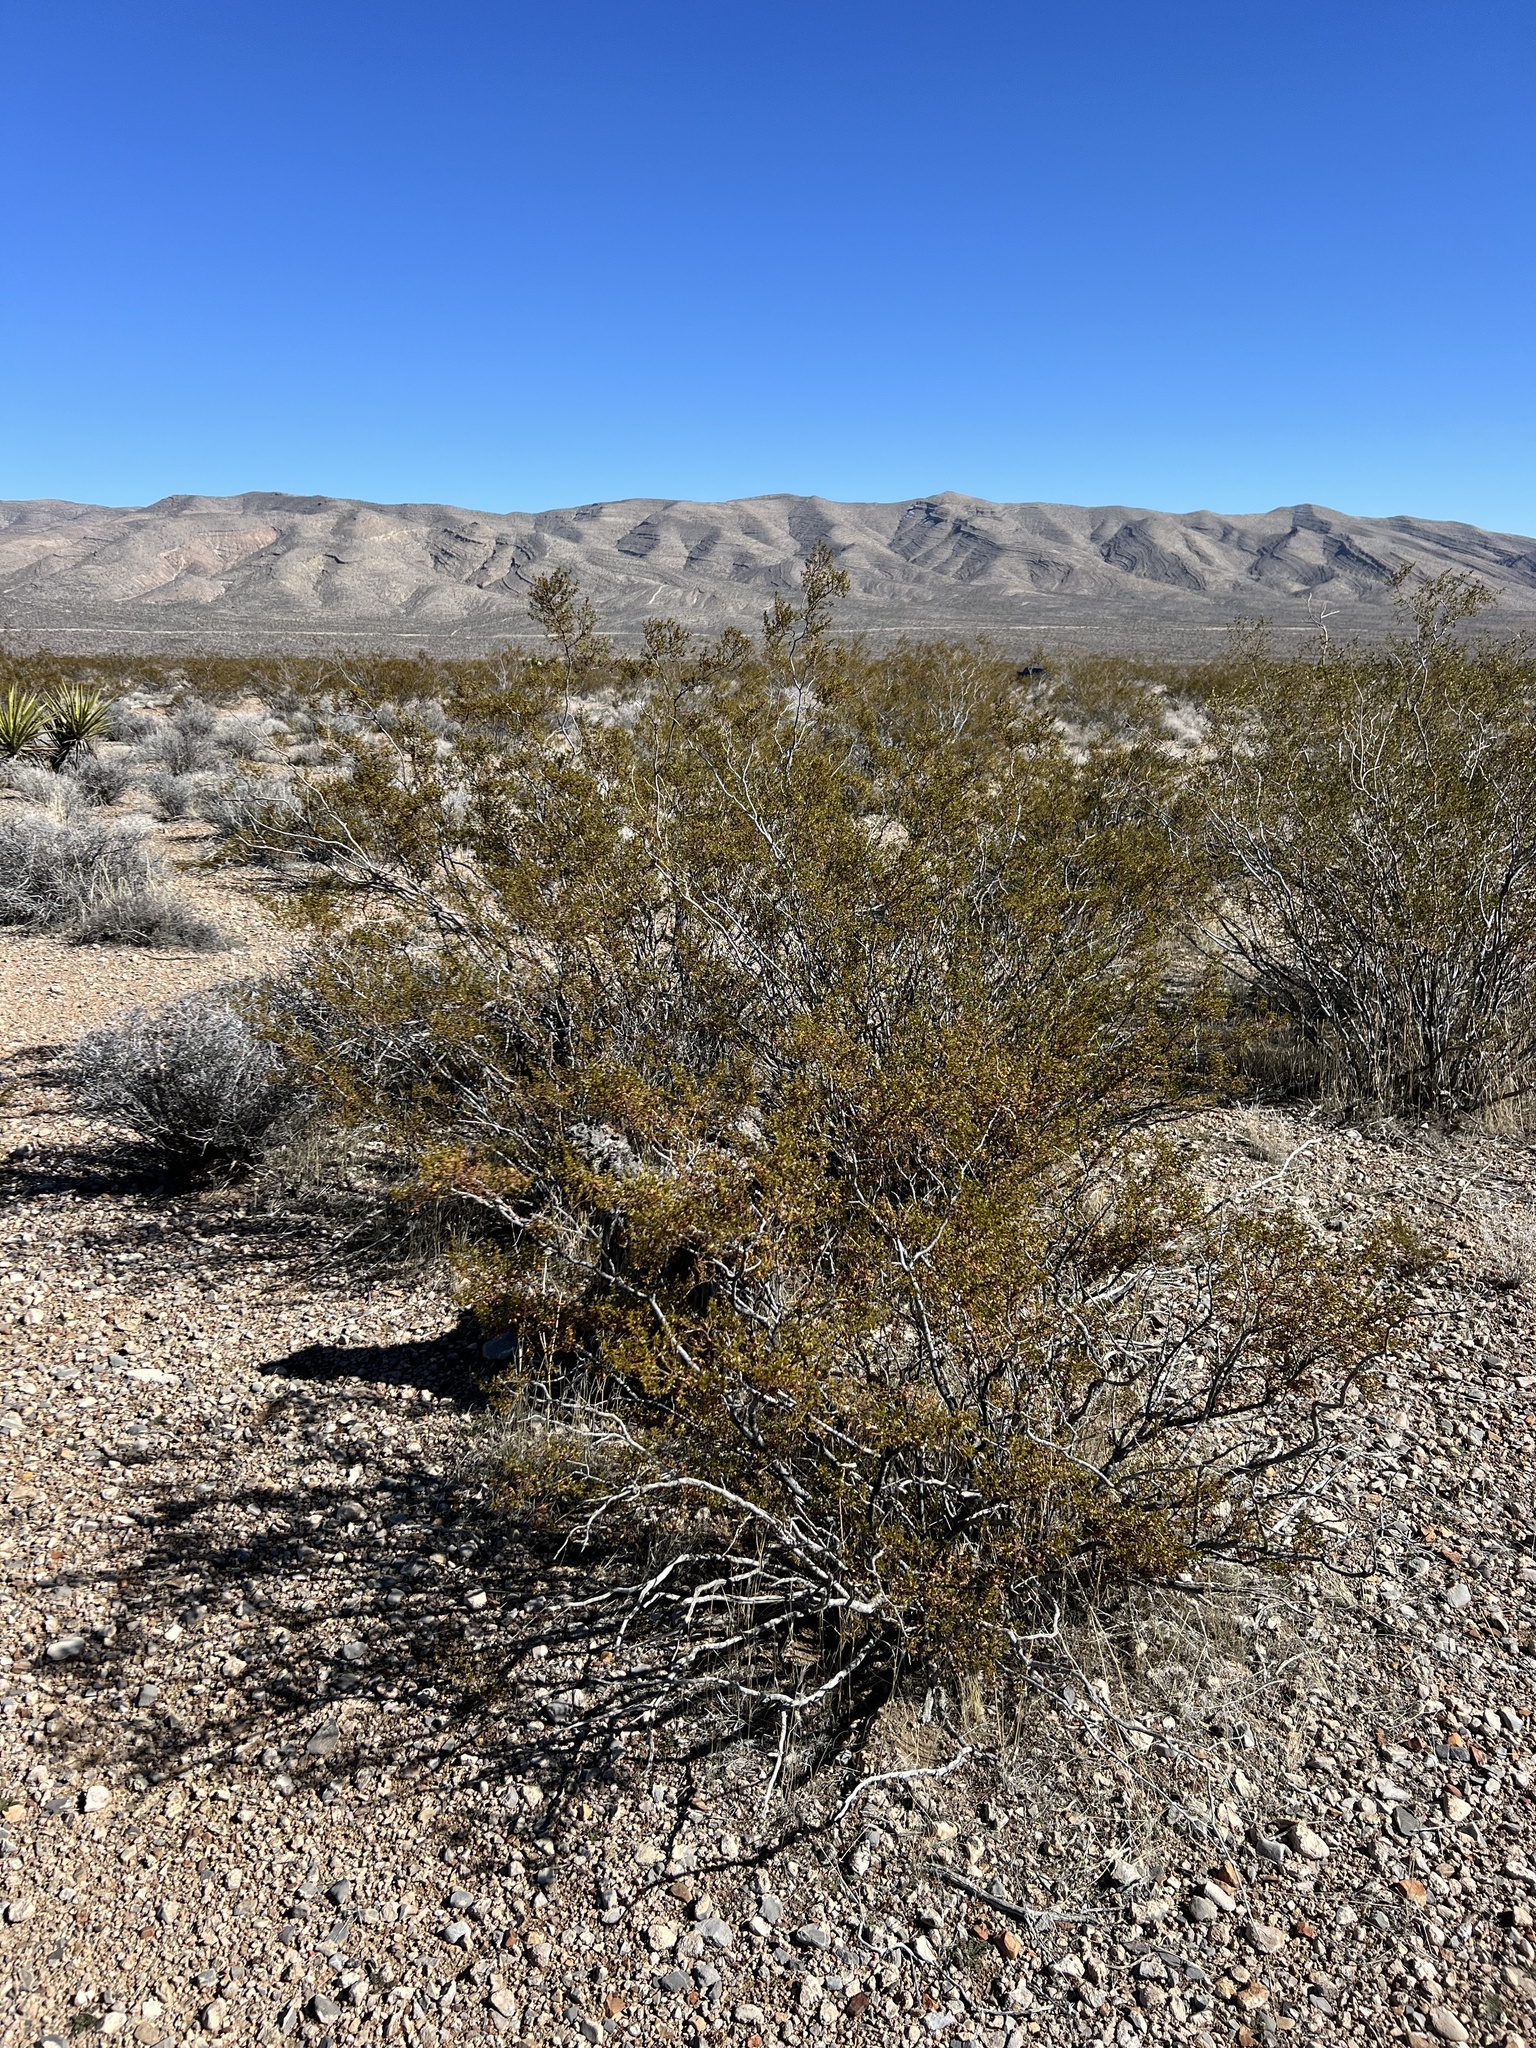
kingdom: Plantae
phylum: Tracheophyta
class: Magnoliopsida
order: Zygophyllales
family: Zygophyllaceae
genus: Larrea
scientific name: Larrea tridentata
